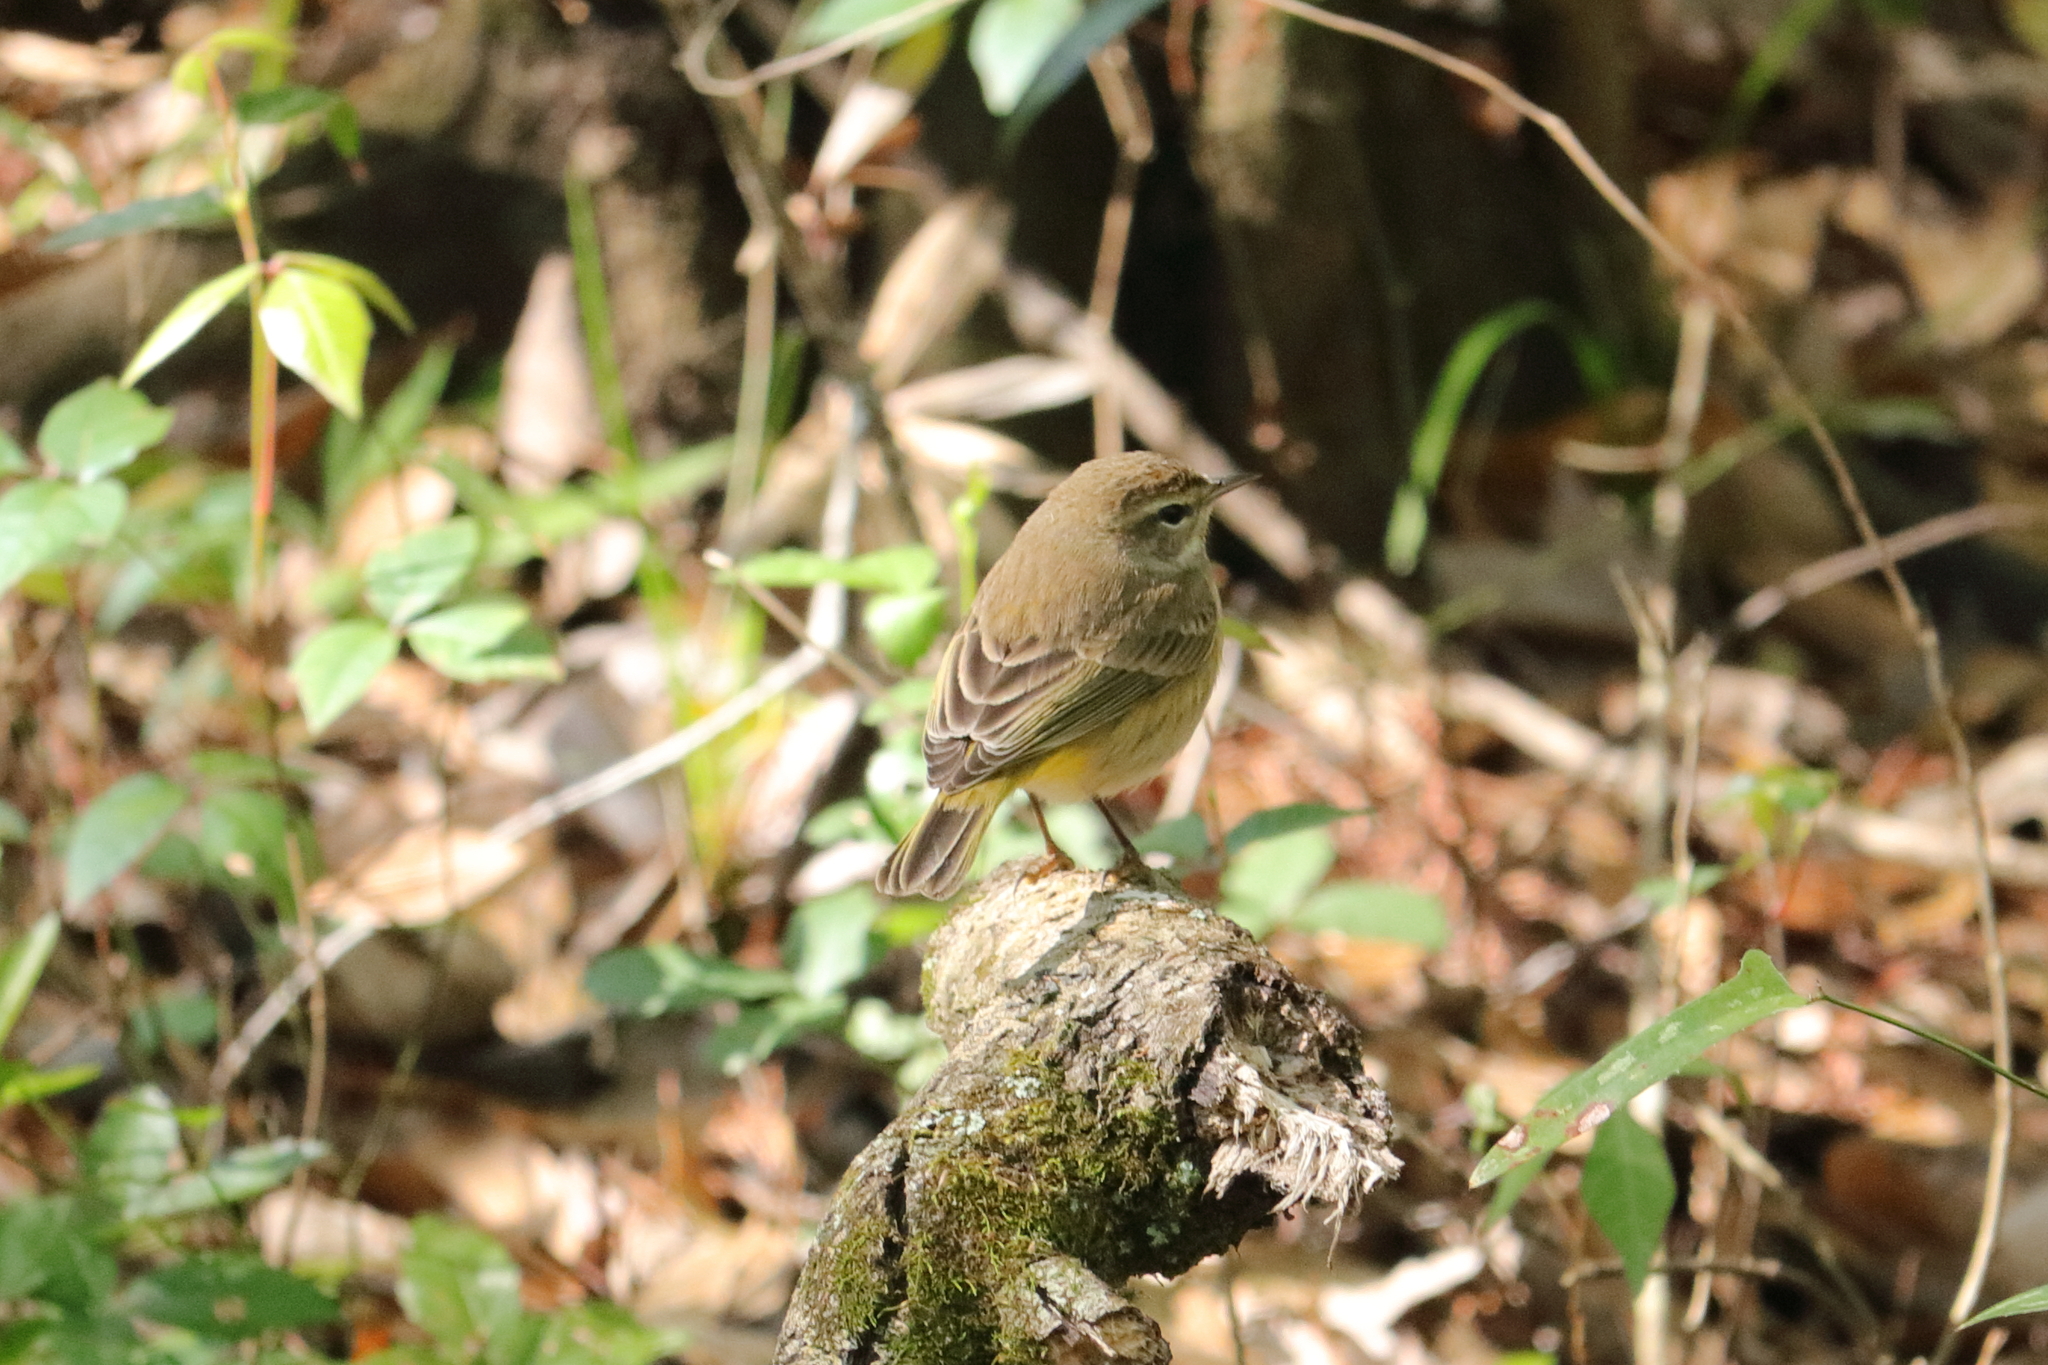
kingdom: Animalia
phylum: Chordata
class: Aves
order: Passeriformes
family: Parulidae
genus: Setophaga
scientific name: Setophaga palmarum
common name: Palm warbler
